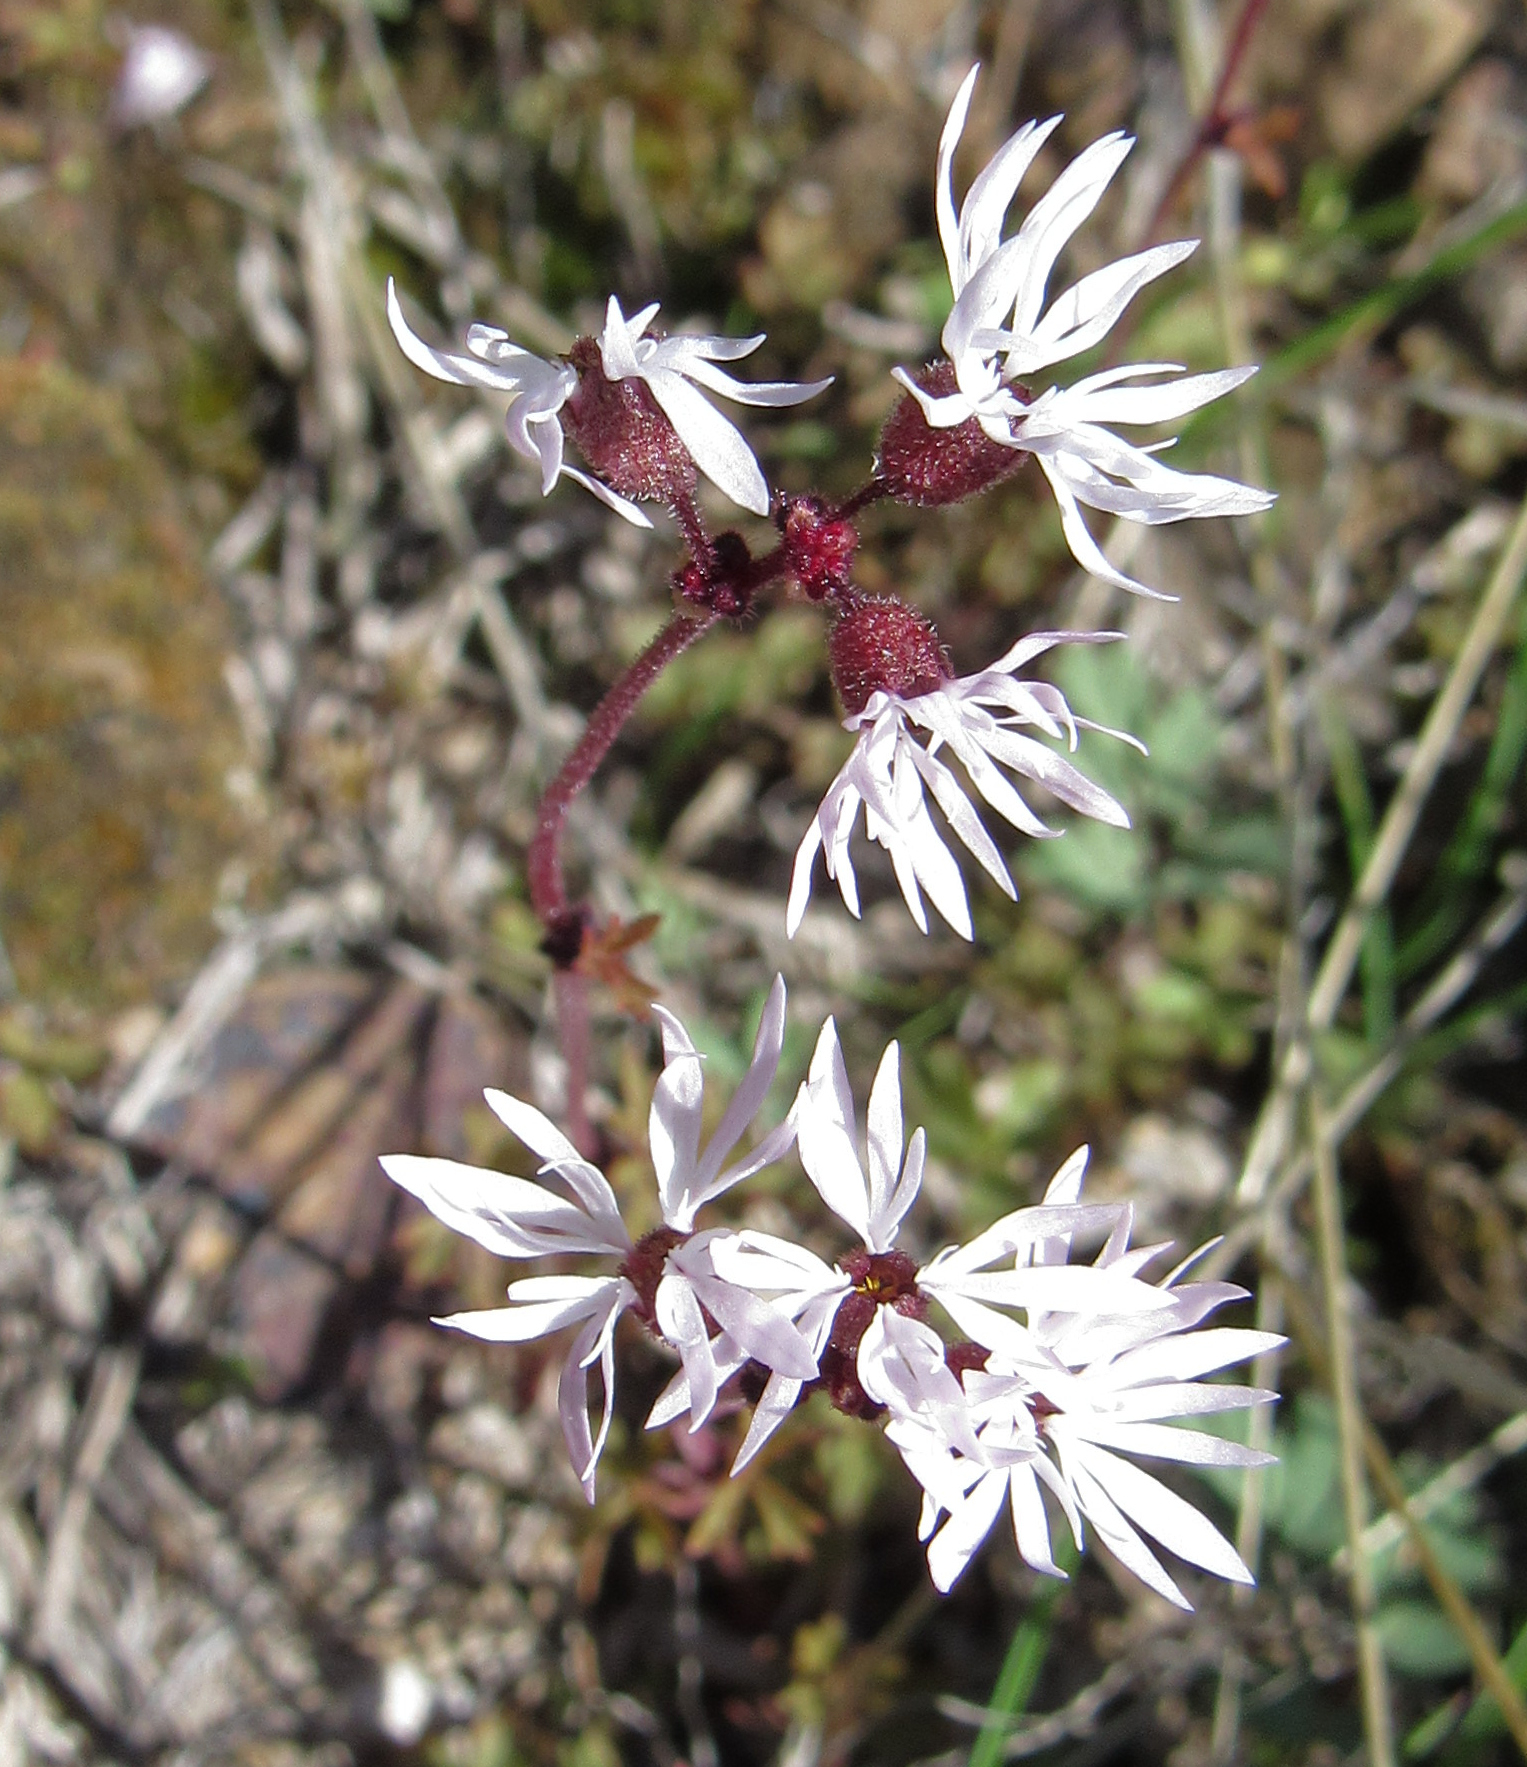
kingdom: Plantae
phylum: Tracheophyta
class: Magnoliopsida
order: Saxifragales
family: Saxifragaceae
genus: Lithophragma
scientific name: Lithophragma glabrum
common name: Bulbous prairie-star
